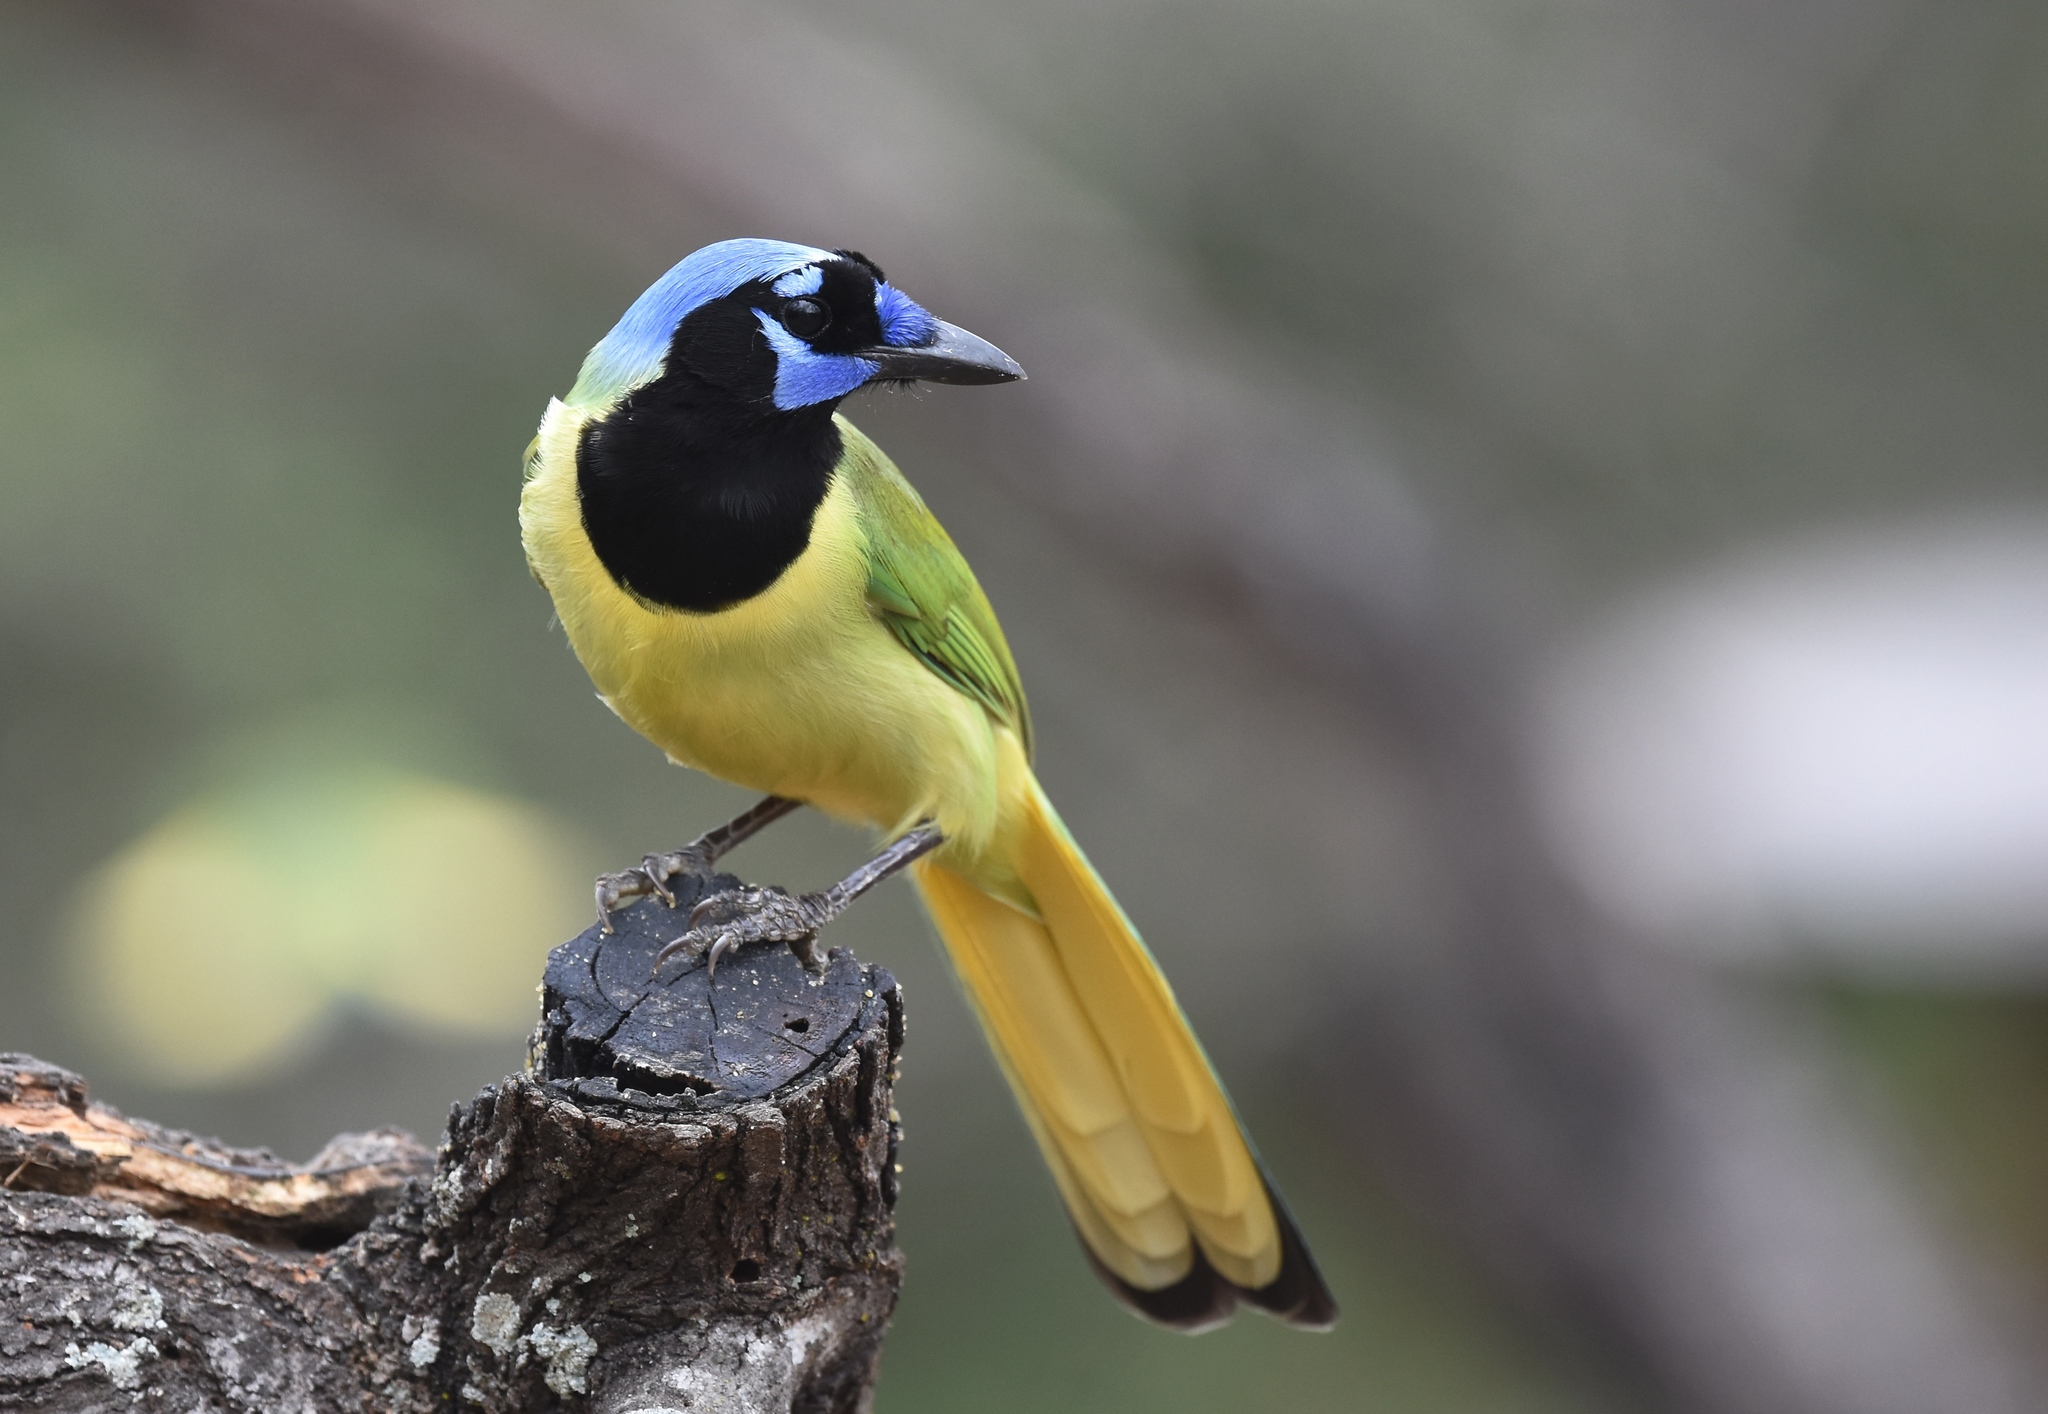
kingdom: Animalia
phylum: Chordata
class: Aves
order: Passeriformes
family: Corvidae
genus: Cyanocorax
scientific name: Cyanocorax yncas
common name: Green jay
